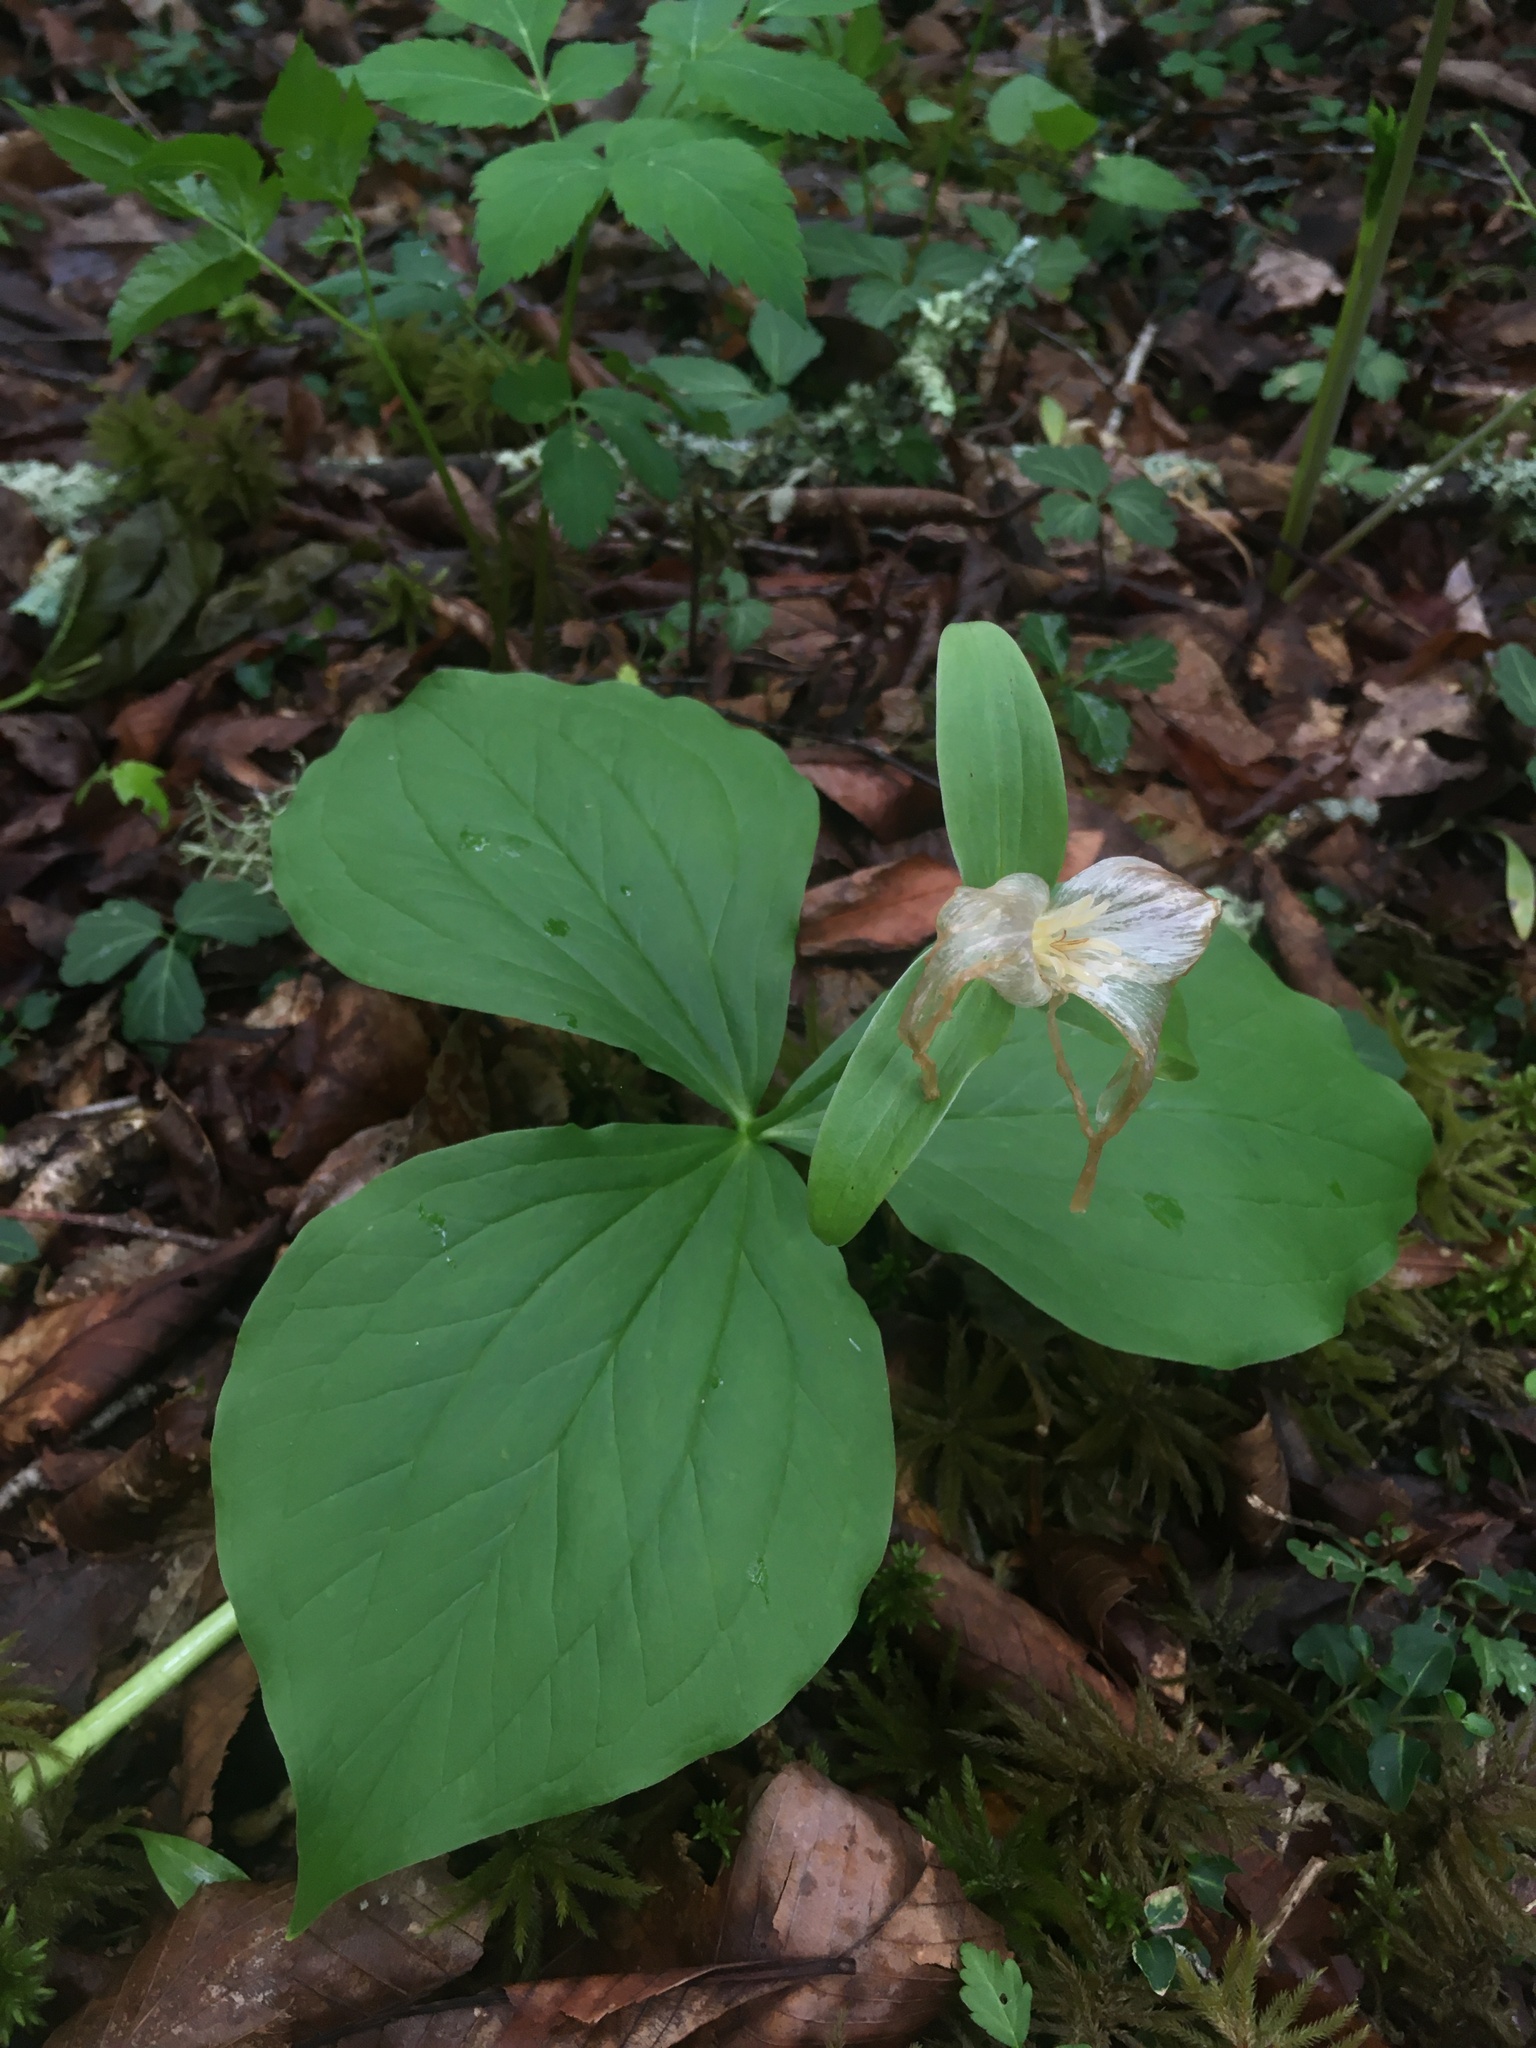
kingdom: Plantae
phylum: Tracheophyta
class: Liliopsida
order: Liliales
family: Melanthiaceae
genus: Trillium
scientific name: Trillium grandiflorum
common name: Great white trillium
